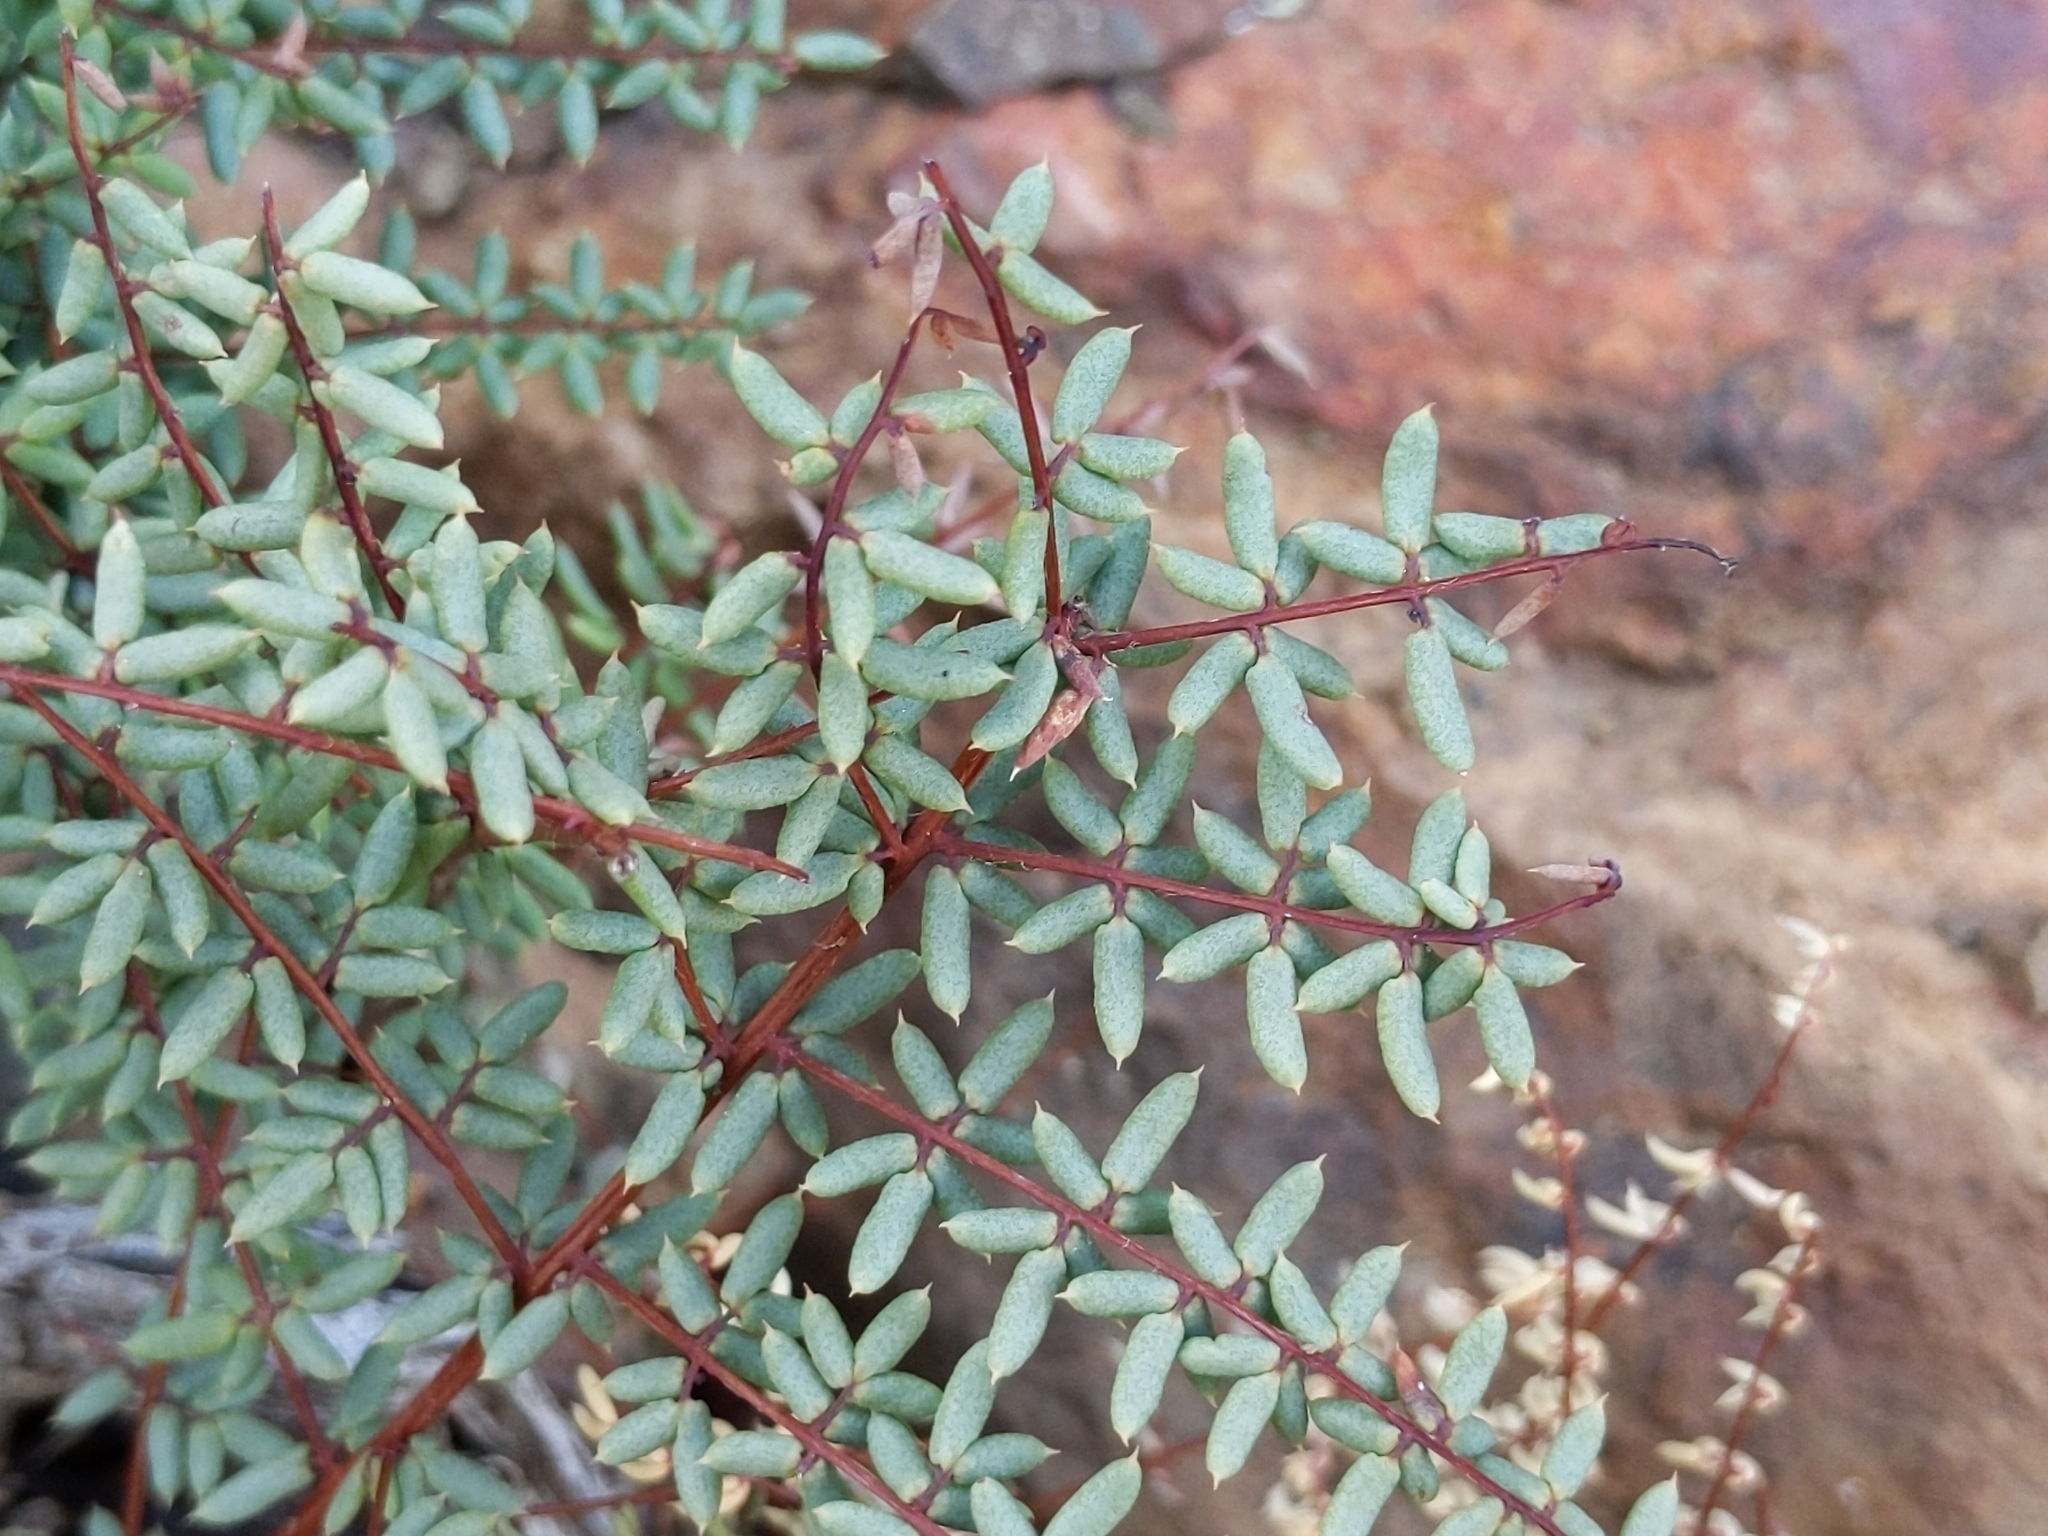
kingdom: Plantae
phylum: Tracheophyta
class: Polypodiopsida
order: Polypodiales
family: Pteridaceae
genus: Pellaea
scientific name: Pellaea mucronata
